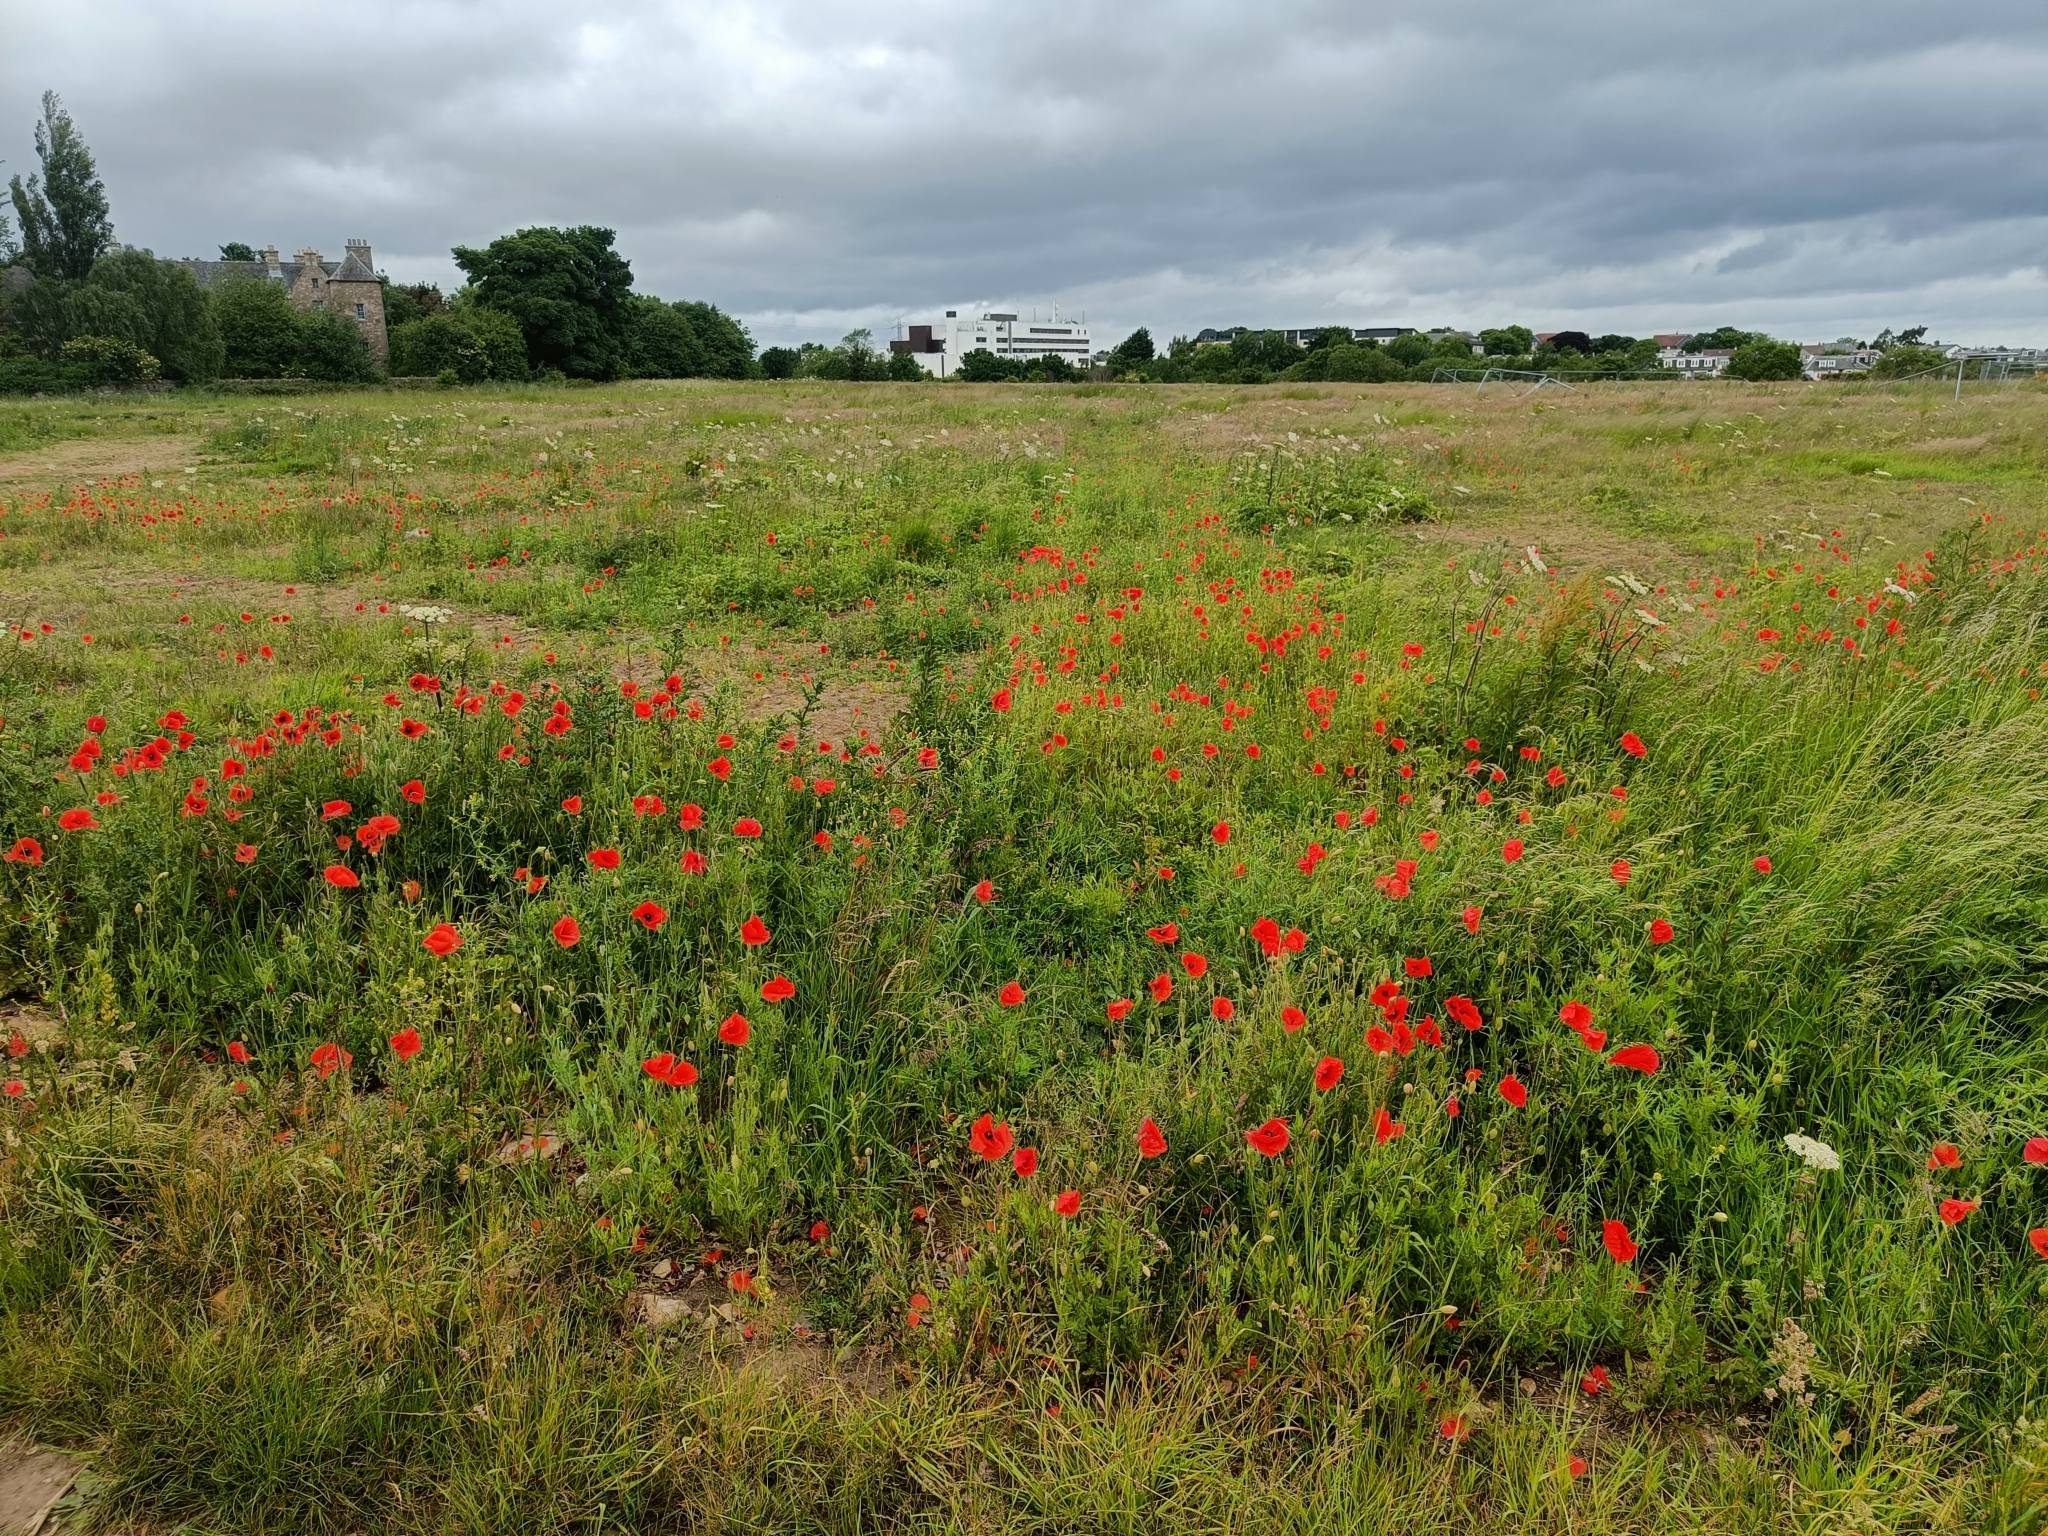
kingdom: Plantae
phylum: Tracheophyta
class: Magnoliopsida
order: Ranunculales
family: Papaveraceae
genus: Papaver
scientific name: Papaver rhoeas
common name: Corn poppy
